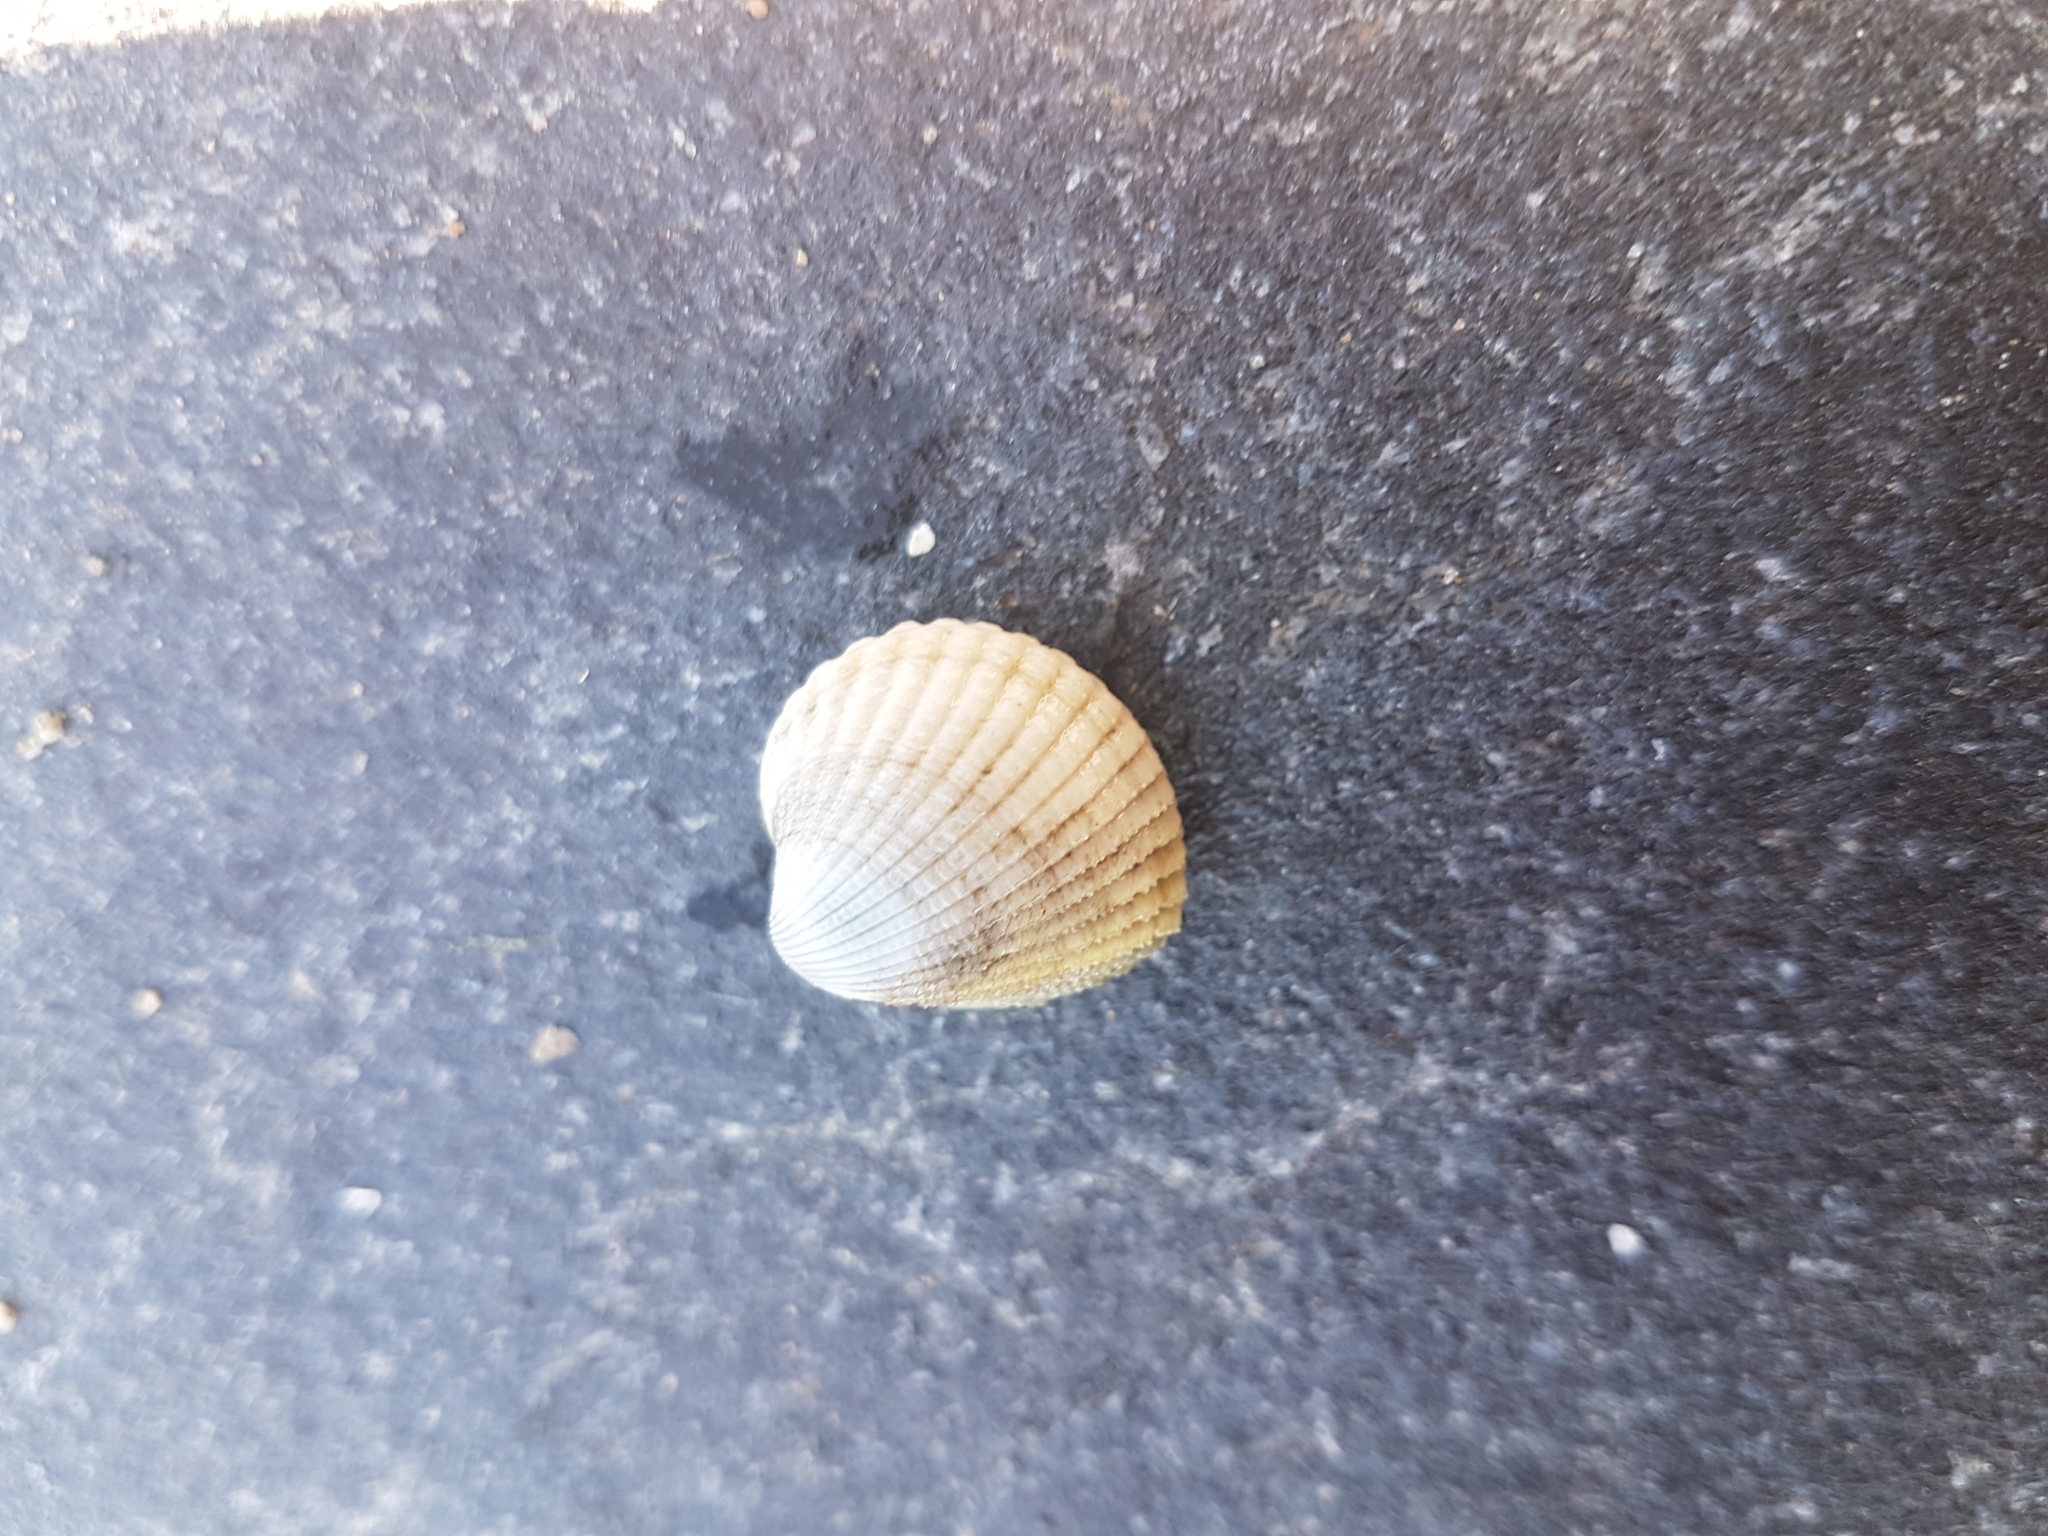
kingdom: Animalia
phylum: Mollusca
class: Bivalvia
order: Cardiida
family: Cardiidae
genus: Cerastoderma
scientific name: Cerastoderma edule
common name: Common cockle
